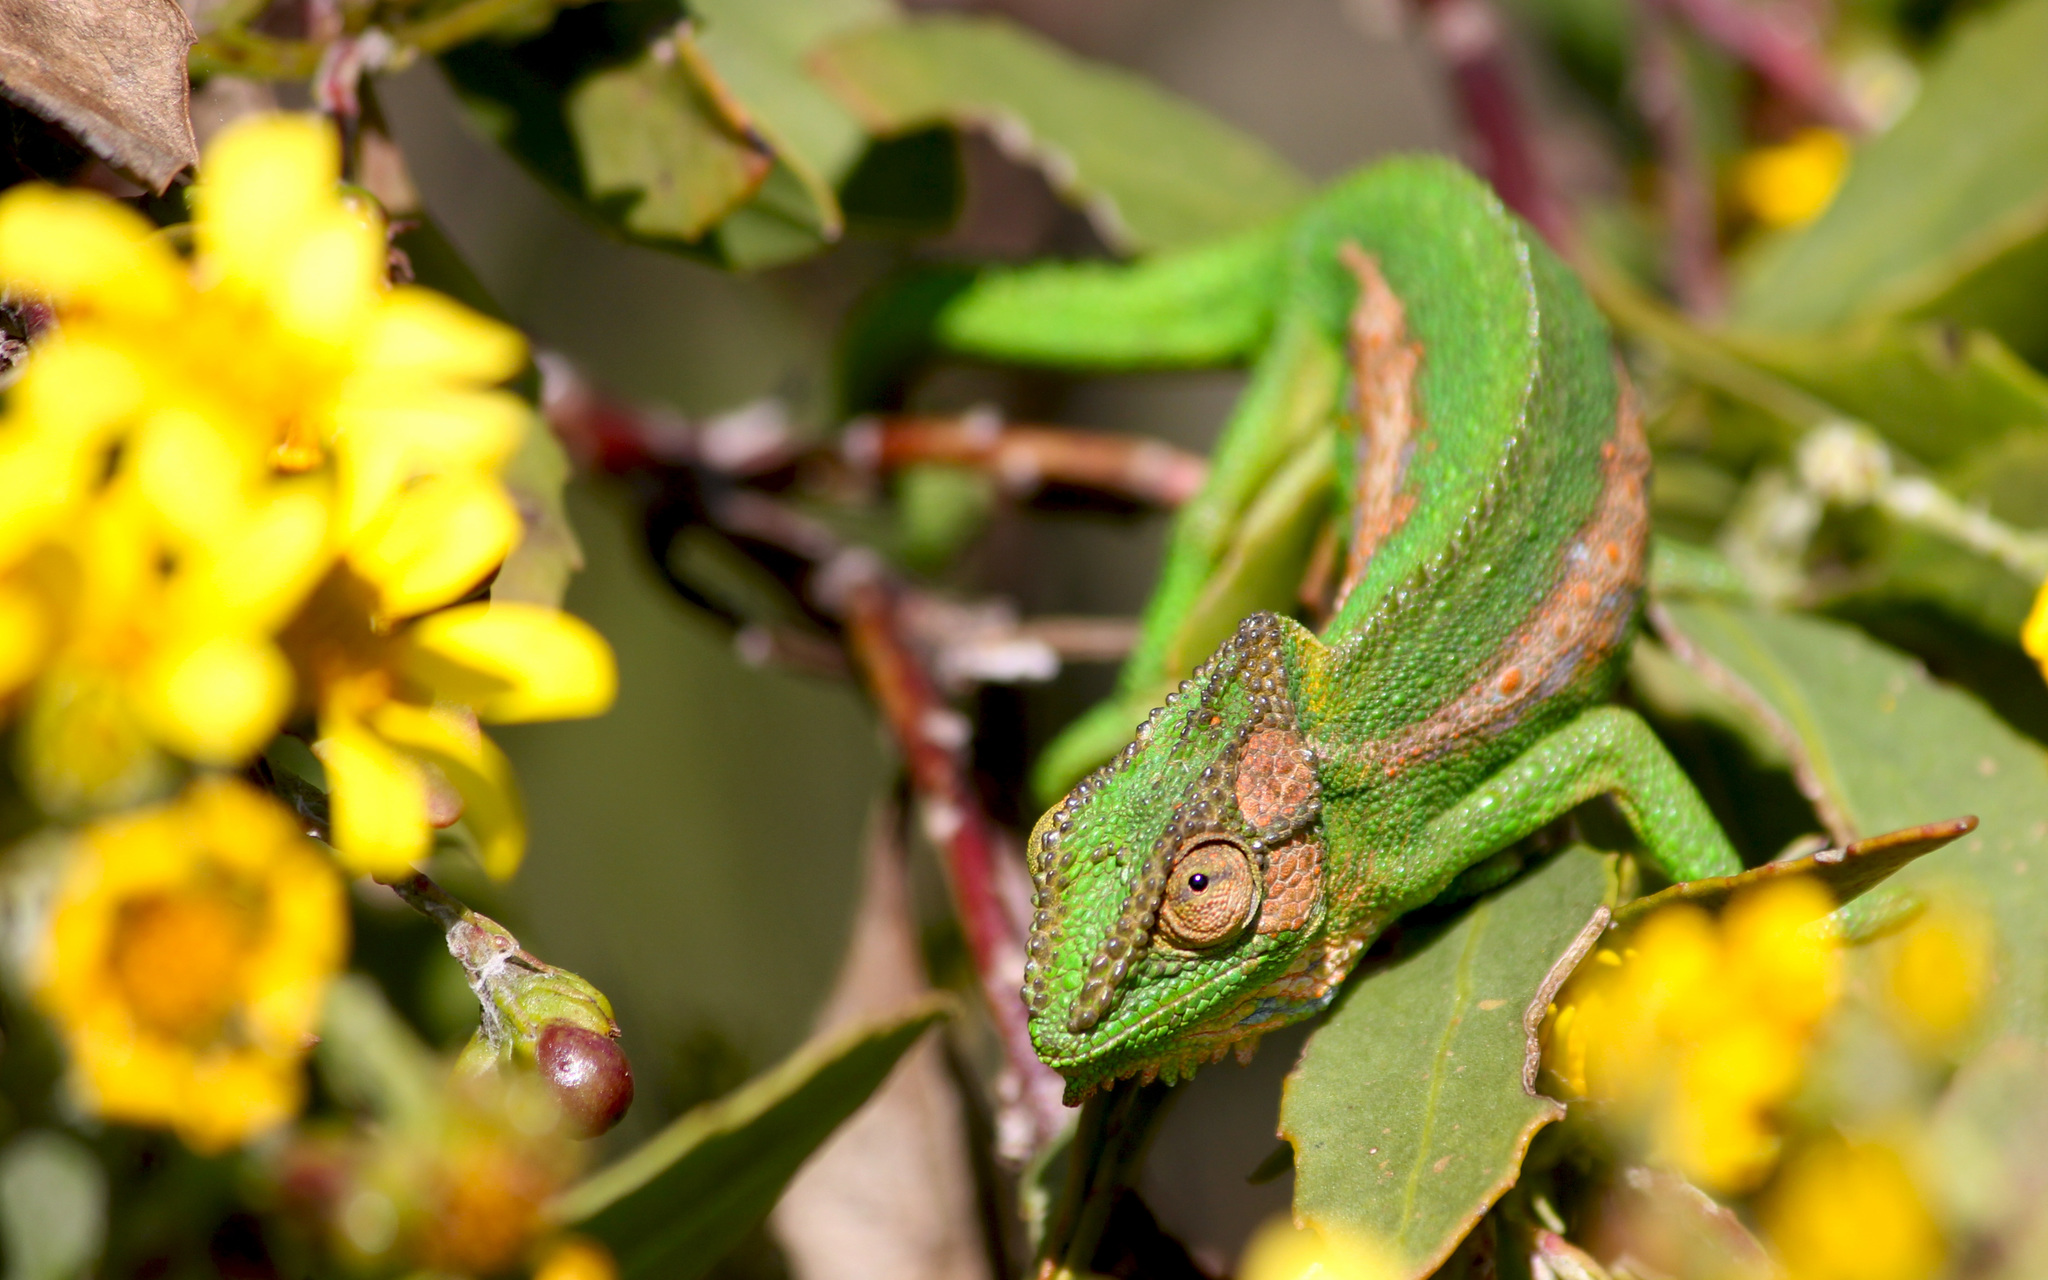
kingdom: Animalia
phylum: Chordata
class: Squamata
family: Chamaeleonidae
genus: Bradypodion
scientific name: Bradypodion pumilum
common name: Cape dwarf chameleon
